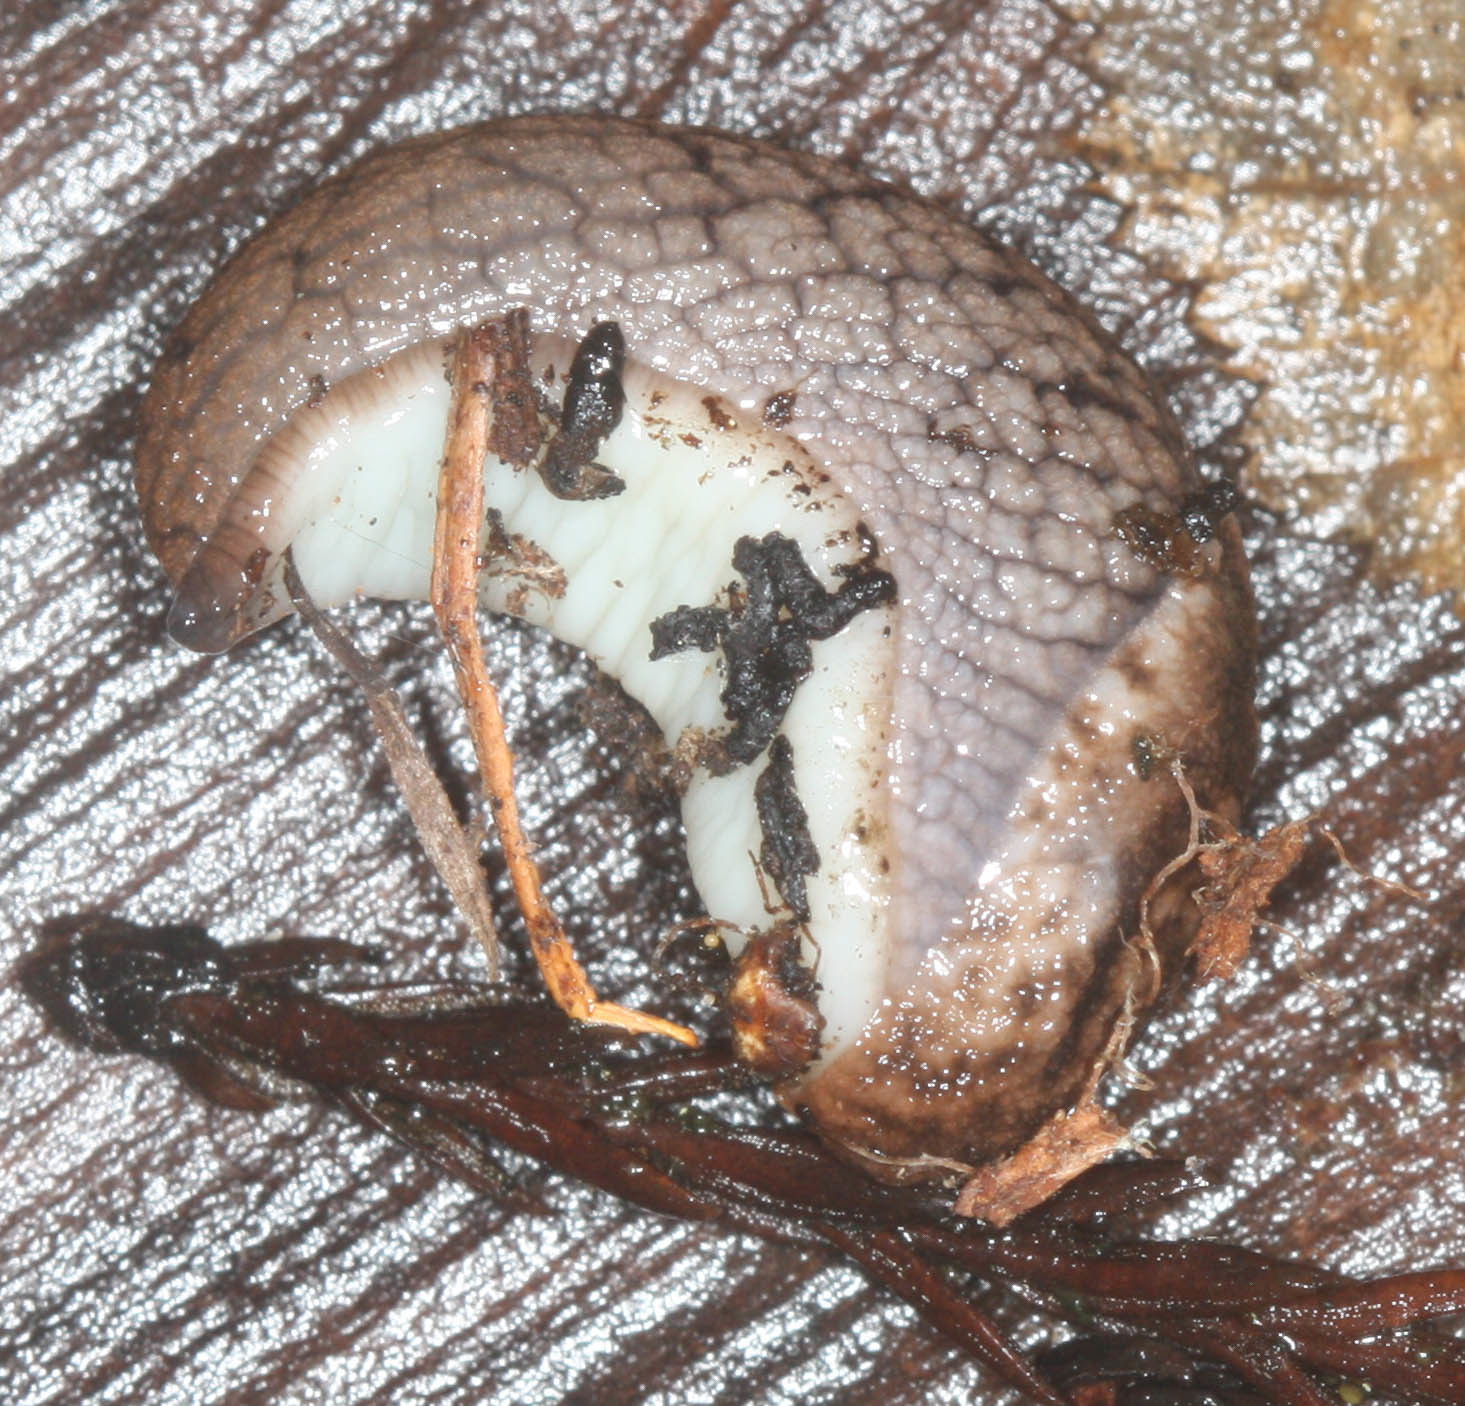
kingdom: Animalia
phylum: Mollusca
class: Gastropoda
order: Stylommatophora
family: Ariolimacidae
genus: Prophysaon
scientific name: Prophysaon andersonii
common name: Reticulate taildropper
